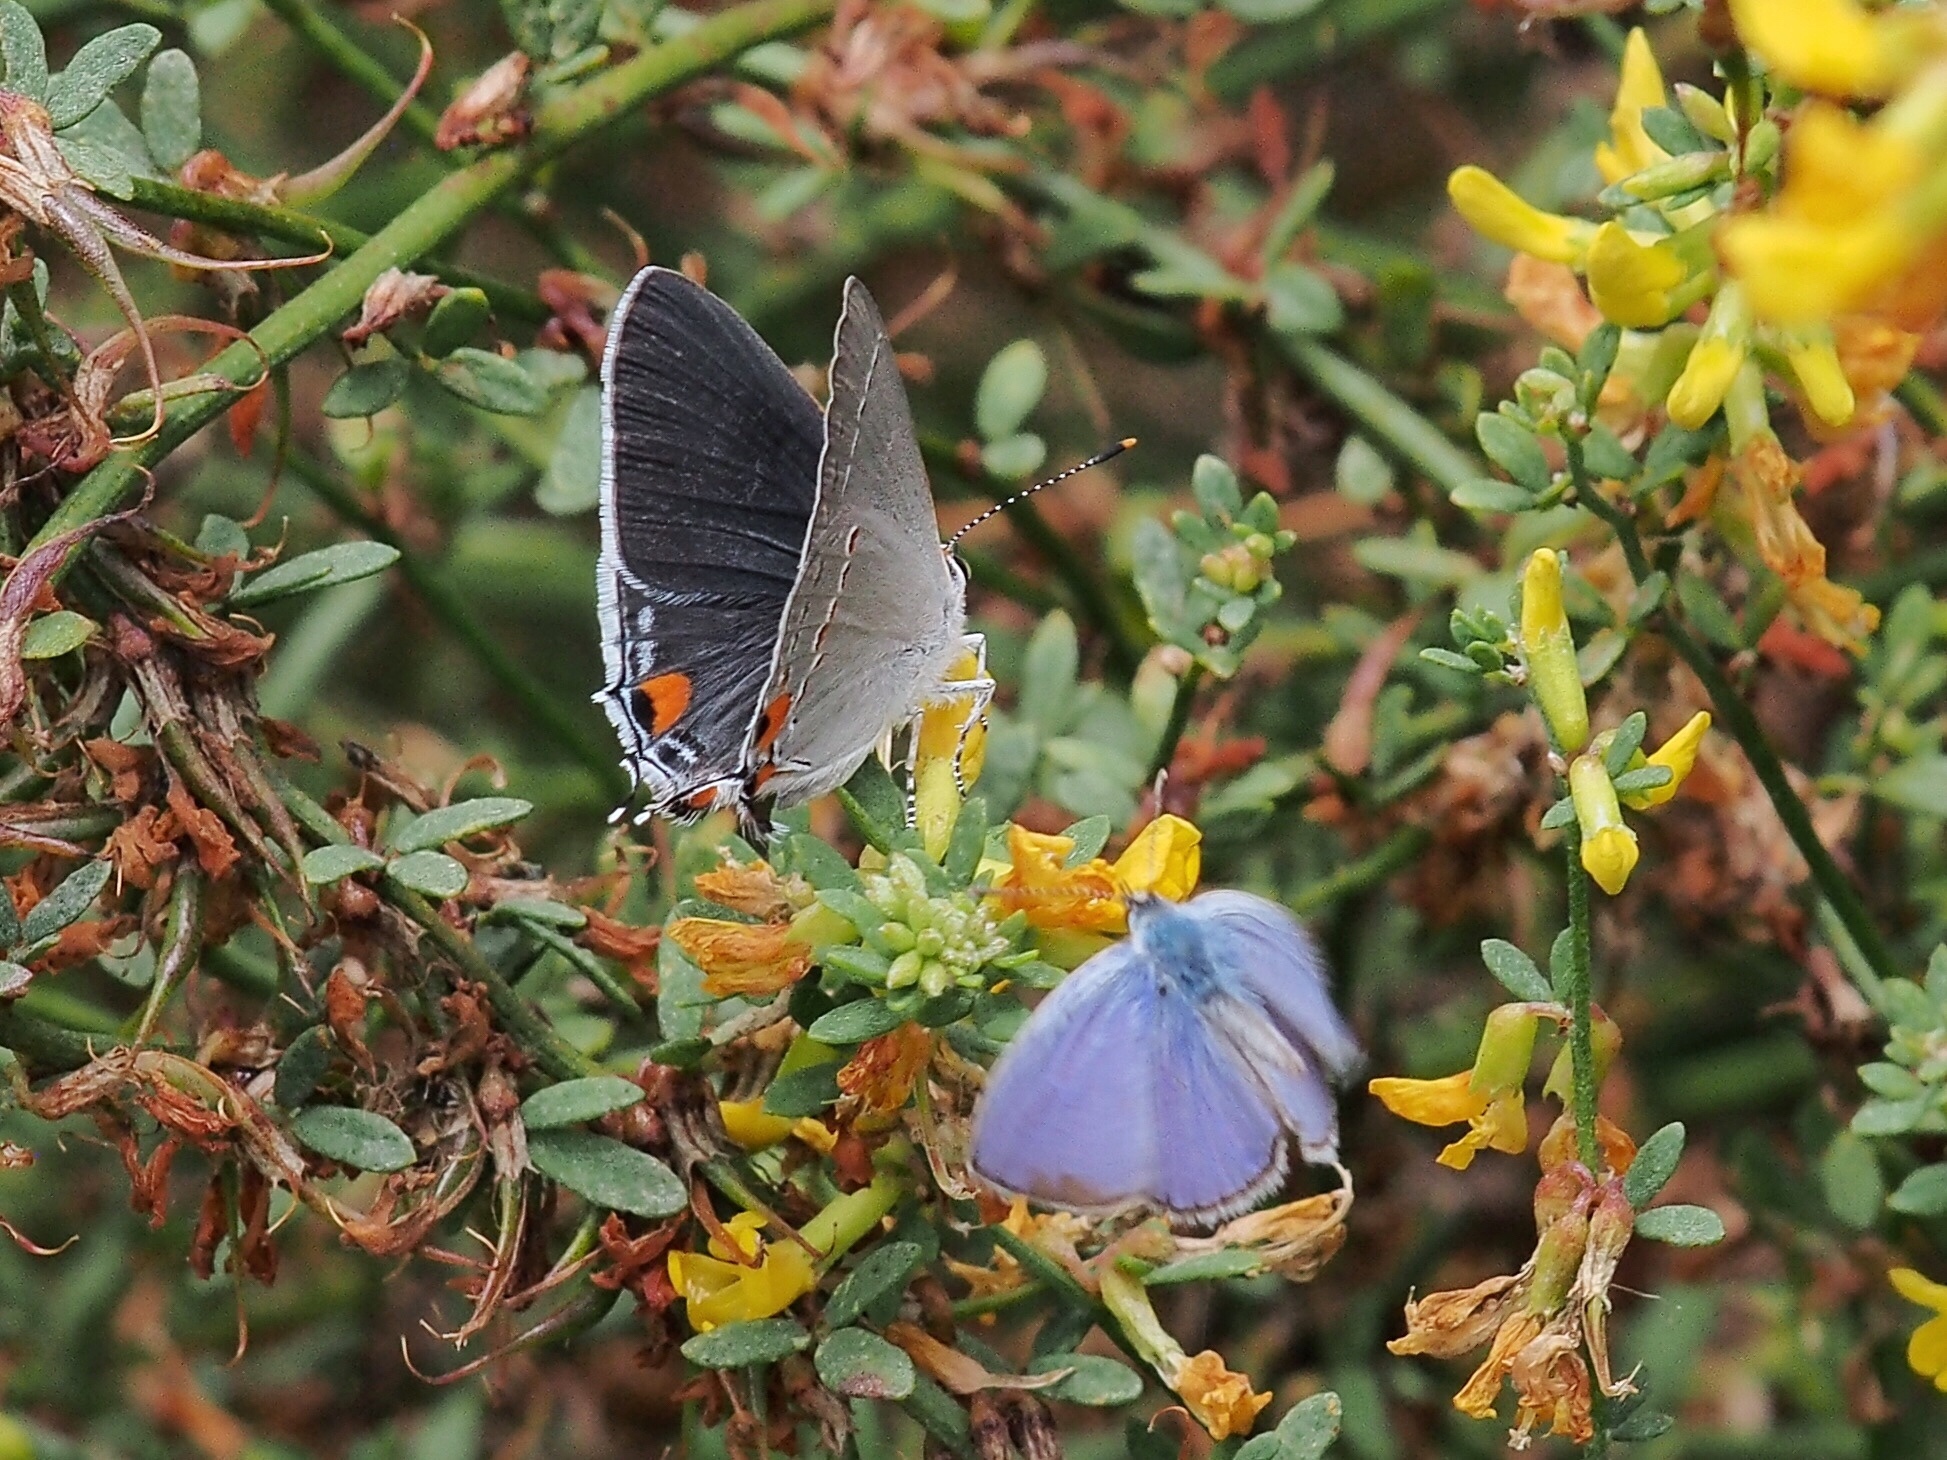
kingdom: Animalia
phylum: Arthropoda
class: Insecta
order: Lepidoptera
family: Lycaenidae
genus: Hemiargus
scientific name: Hemiargus ceraunus
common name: Ceraunus blue
